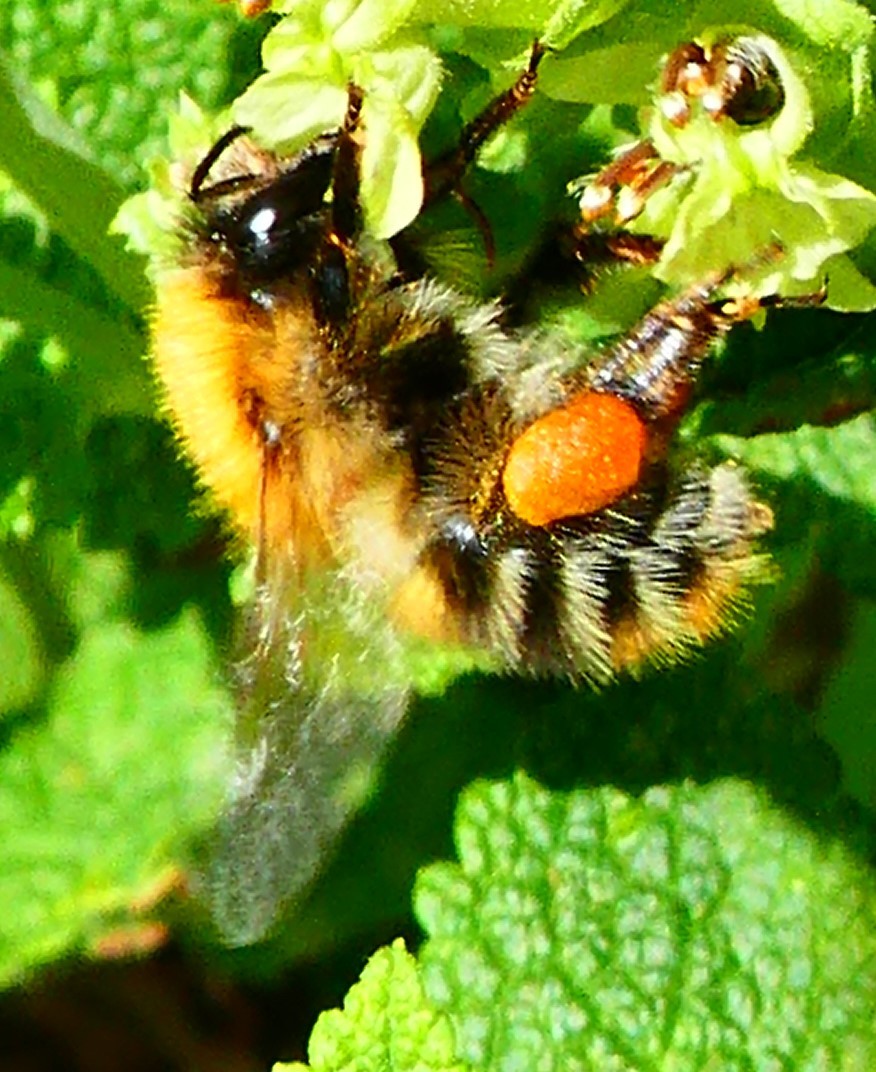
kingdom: Animalia
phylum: Arthropoda
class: Insecta
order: Hymenoptera
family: Apidae
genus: Bombus
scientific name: Bombus pascuorum
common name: Common carder bee
